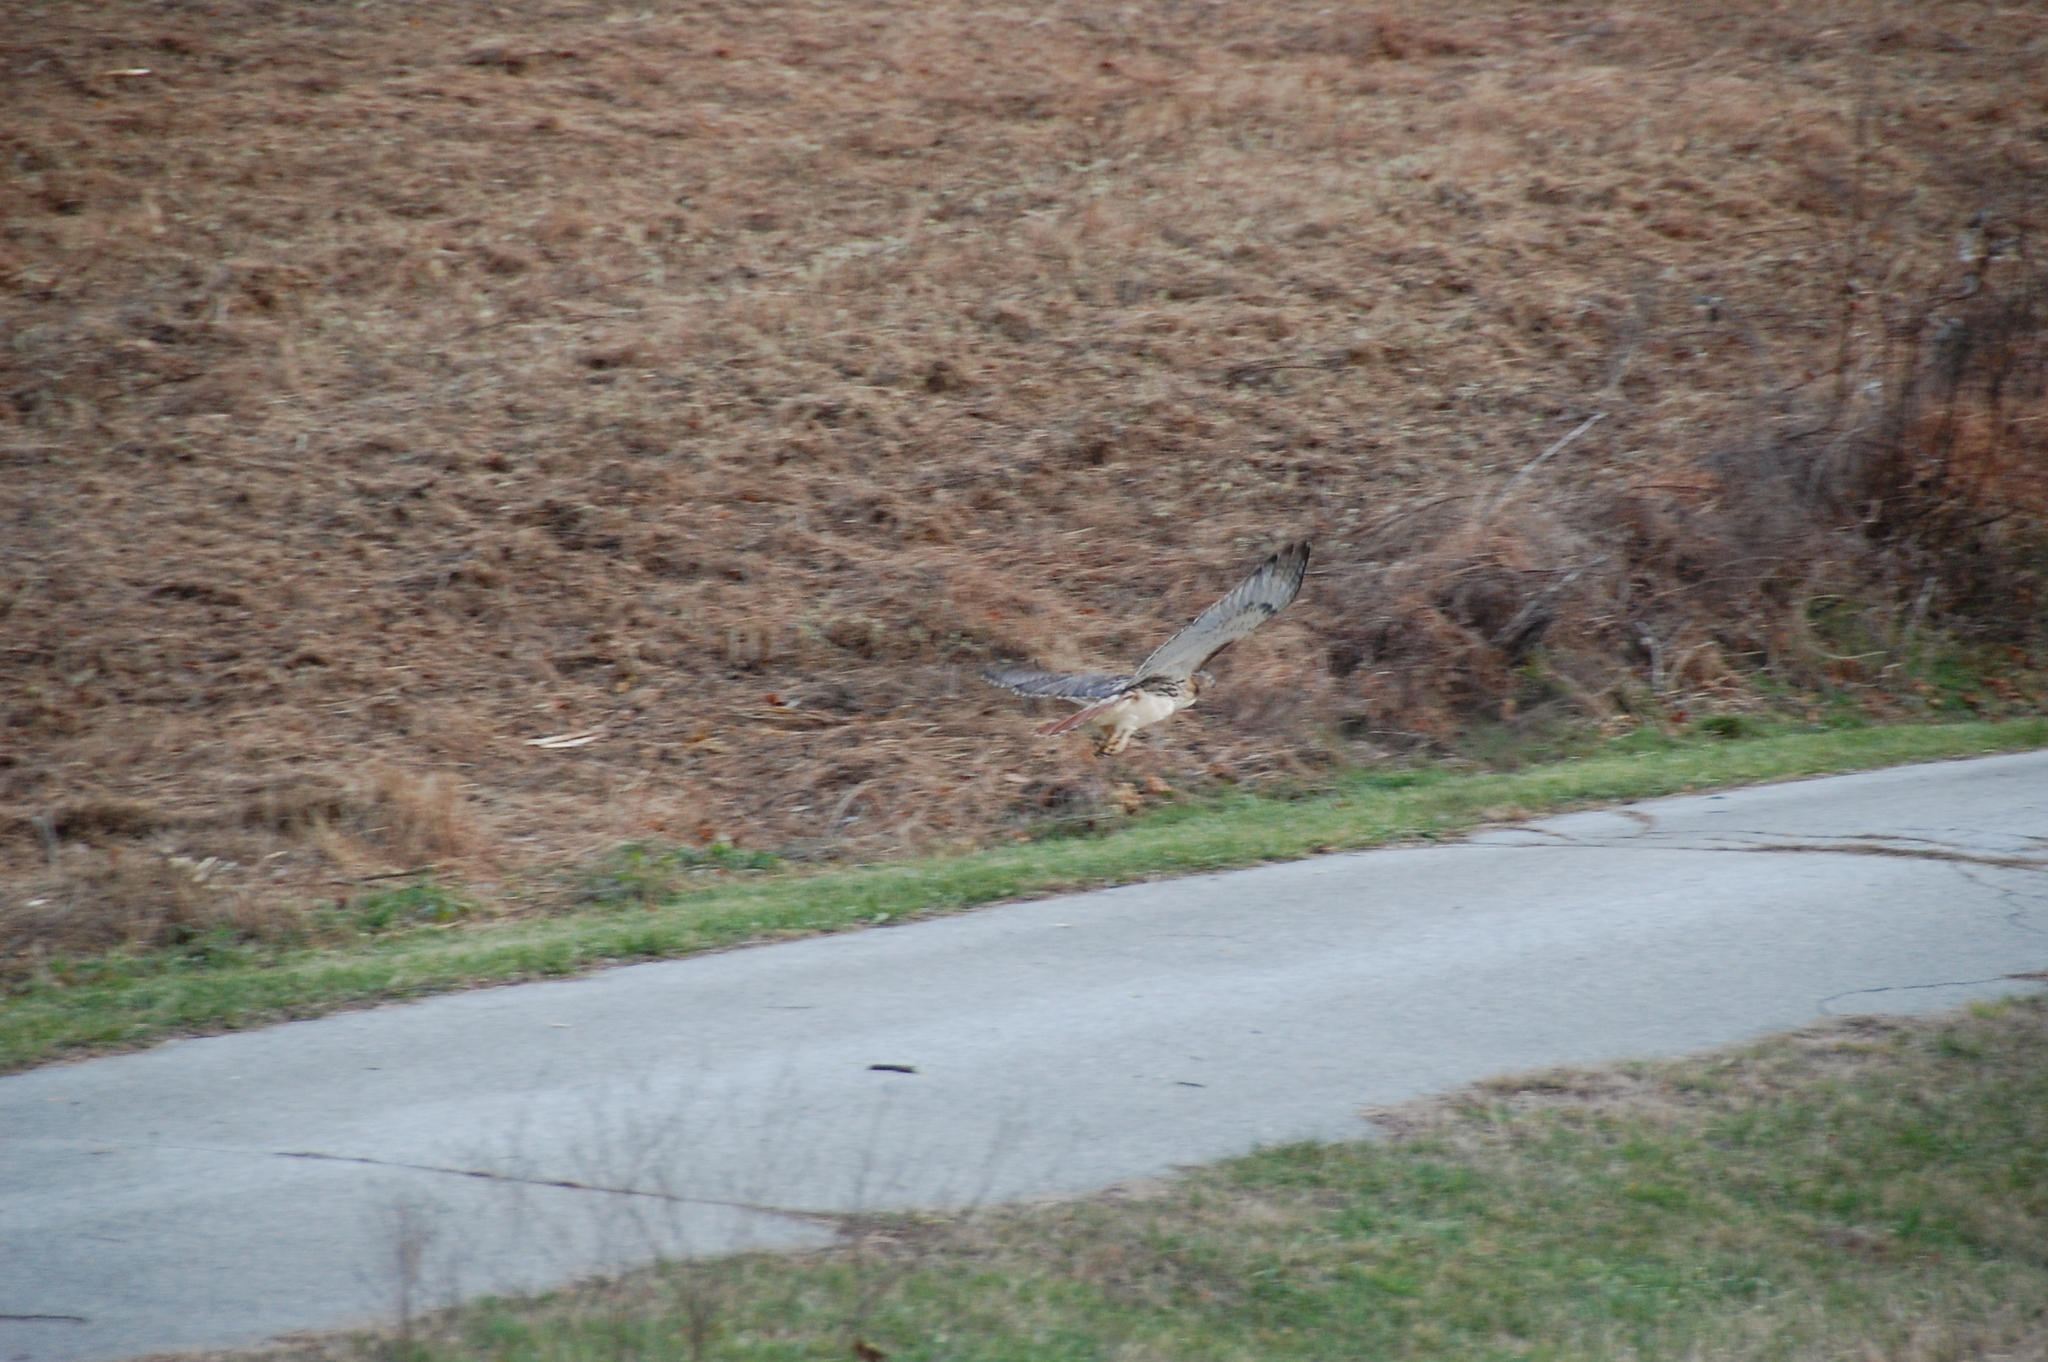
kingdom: Animalia
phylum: Chordata
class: Aves
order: Accipitriformes
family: Accipitridae
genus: Buteo
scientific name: Buteo jamaicensis
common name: Red-tailed hawk
